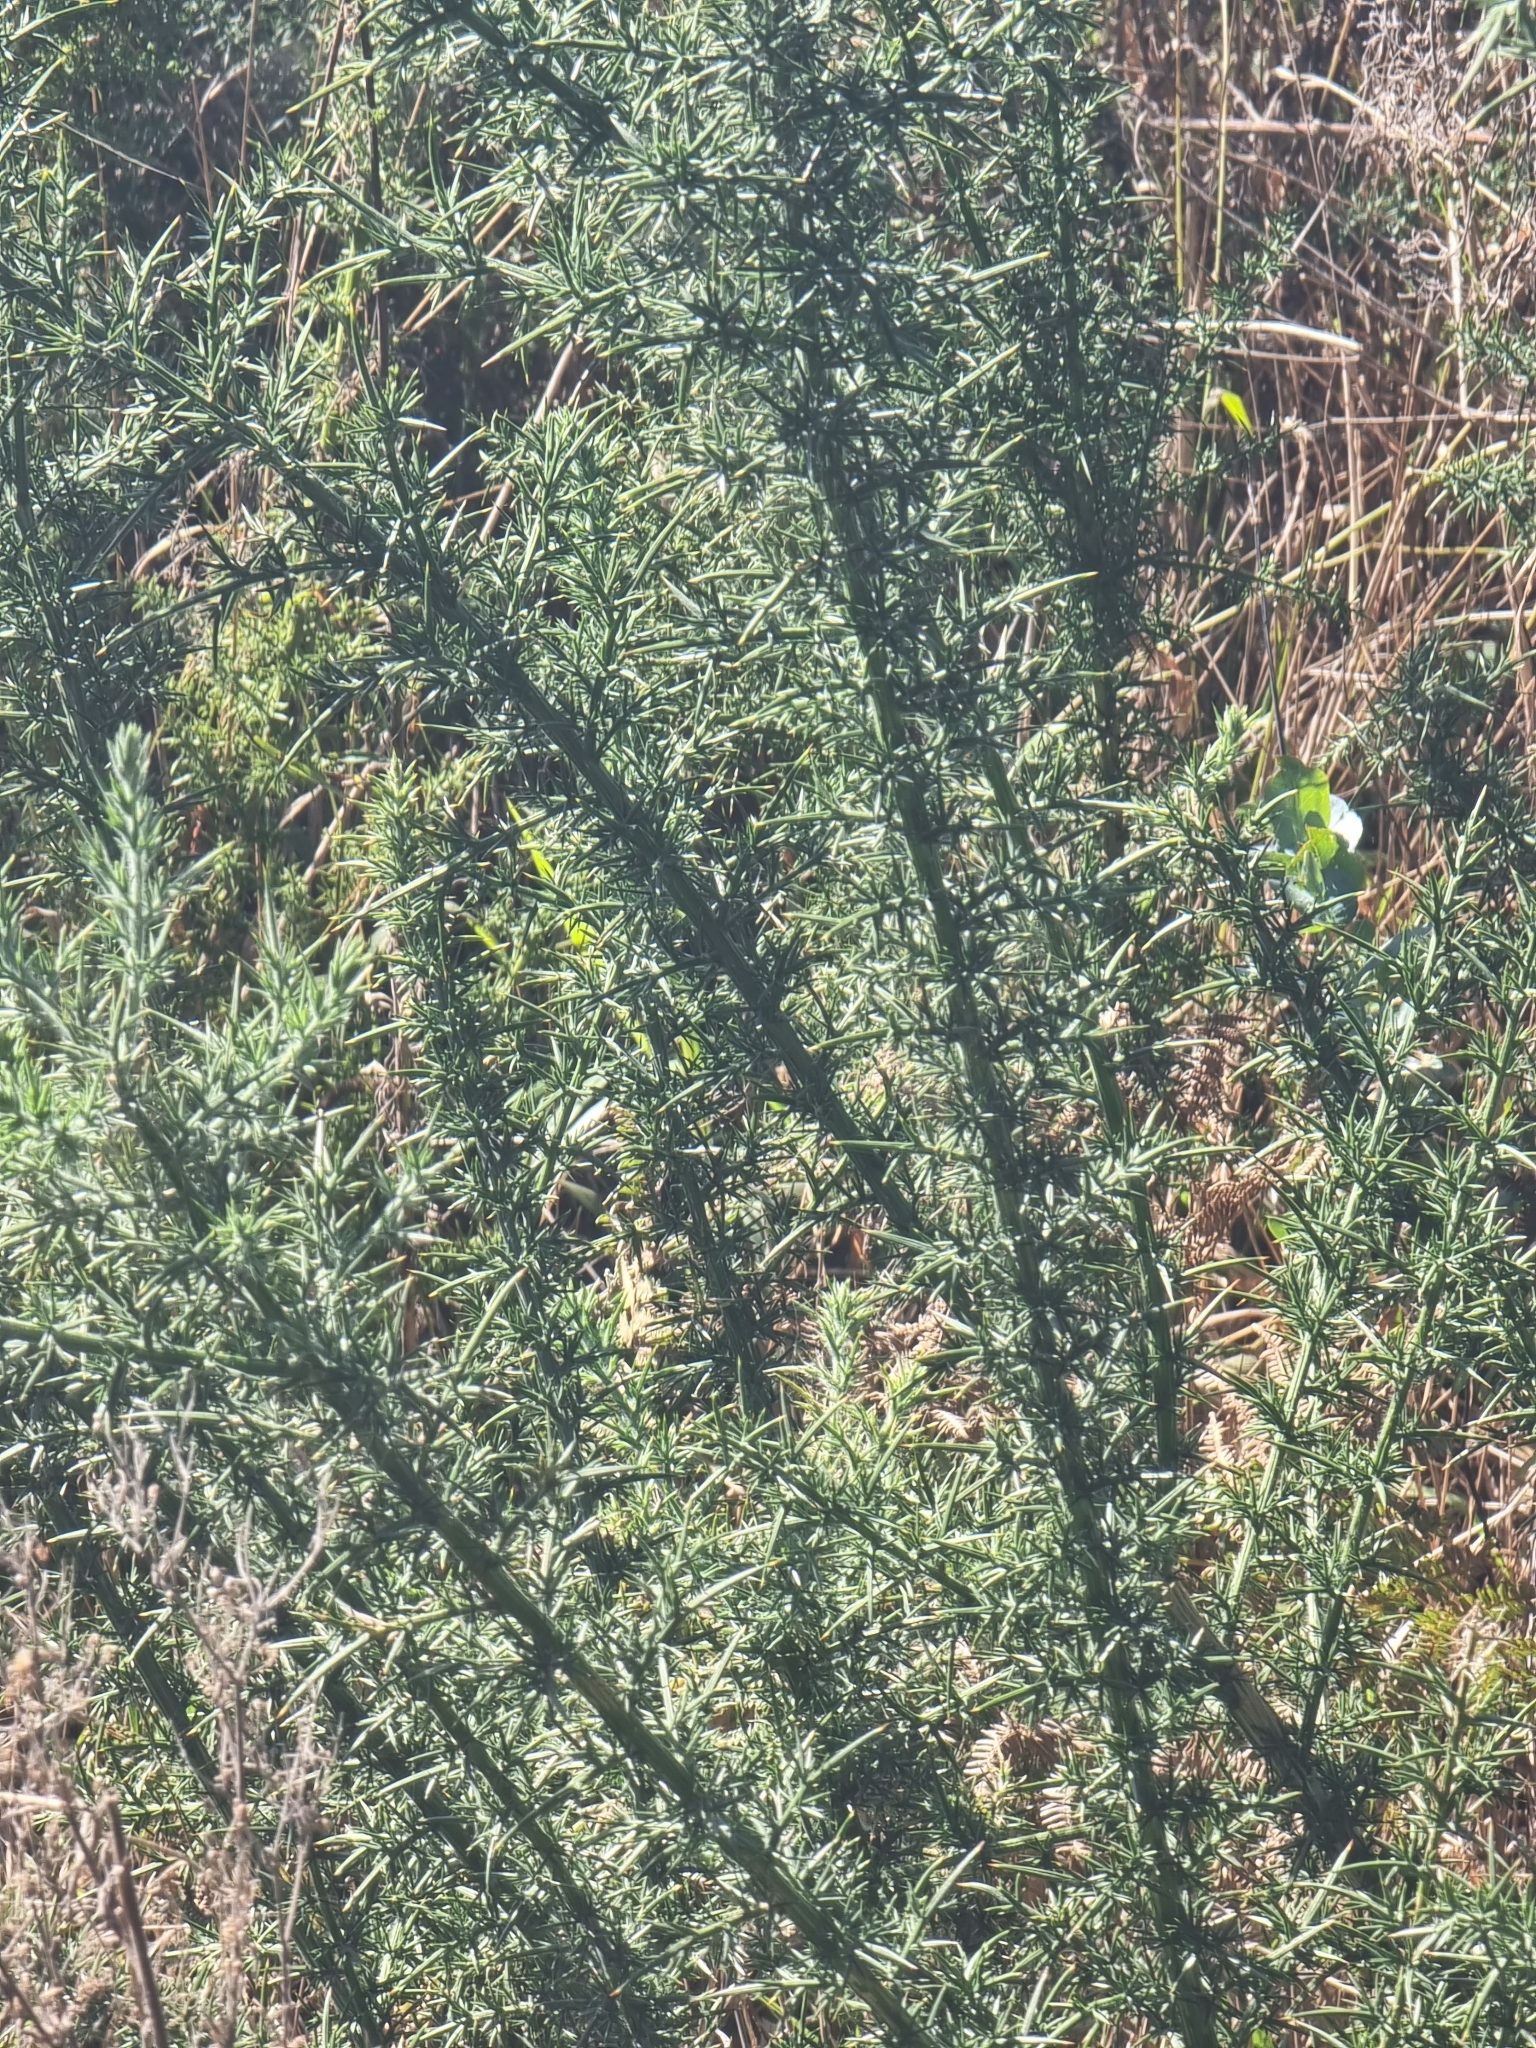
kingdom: Plantae
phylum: Tracheophyta
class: Magnoliopsida
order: Fabales
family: Fabaceae
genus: Ulex
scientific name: Ulex europaeus
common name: Common gorse
